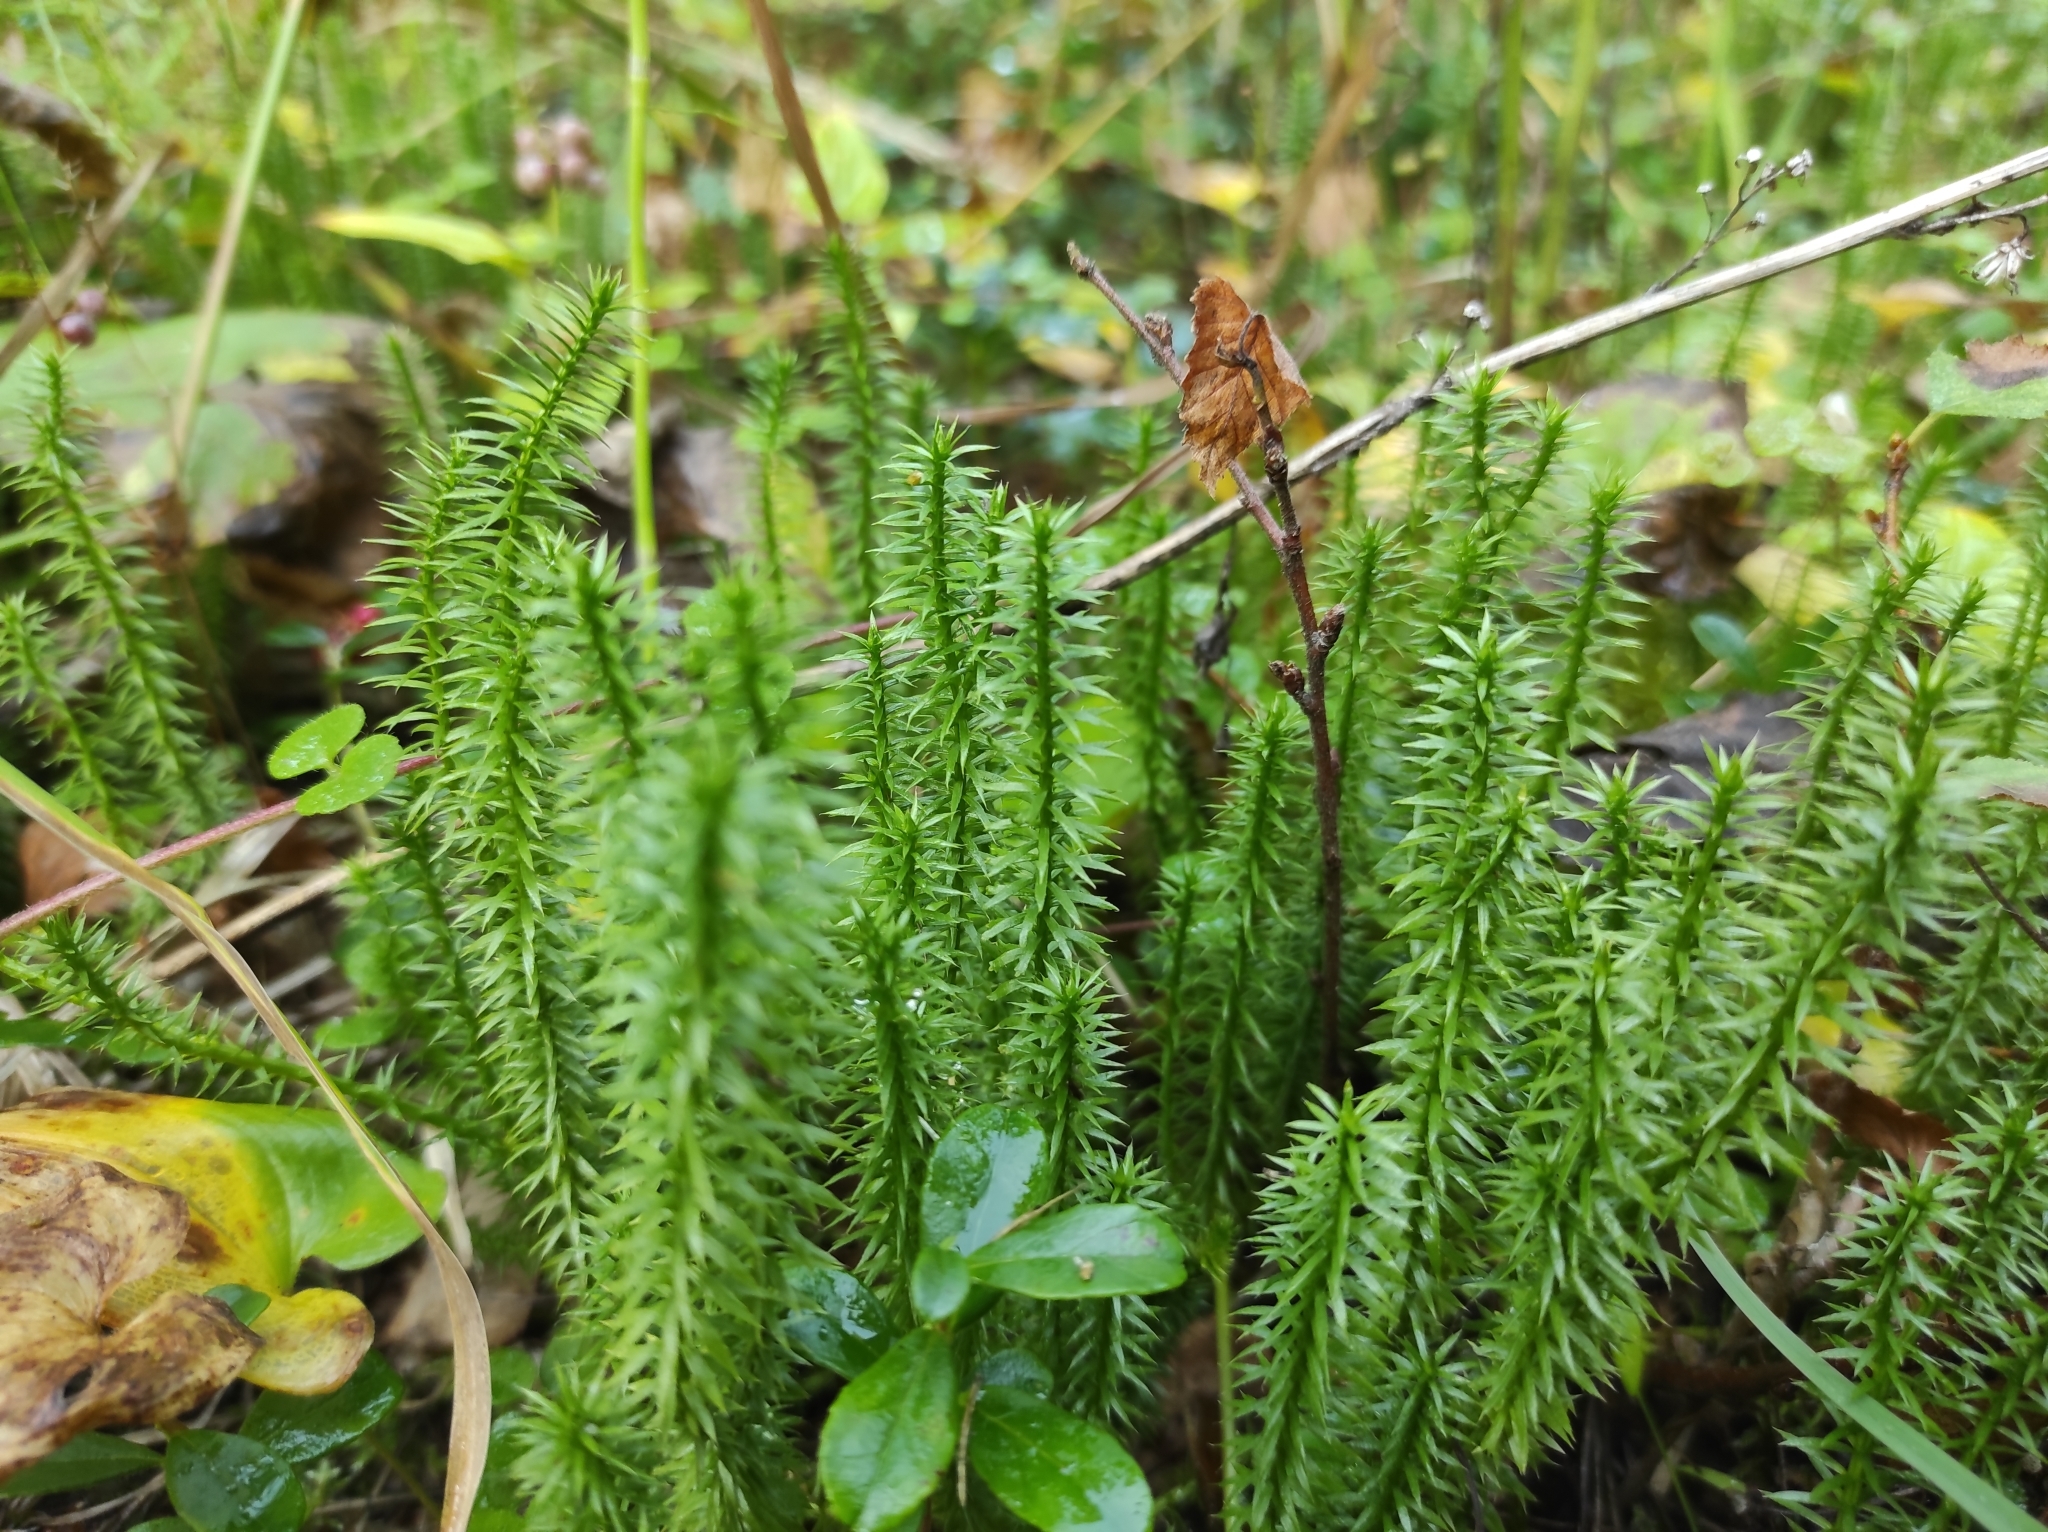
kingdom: Plantae
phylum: Tracheophyta
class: Lycopodiopsida
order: Lycopodiales
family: Lycopodiaceae
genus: Spinulum
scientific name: Spinulum annotinum
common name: Interrupted club-moss
